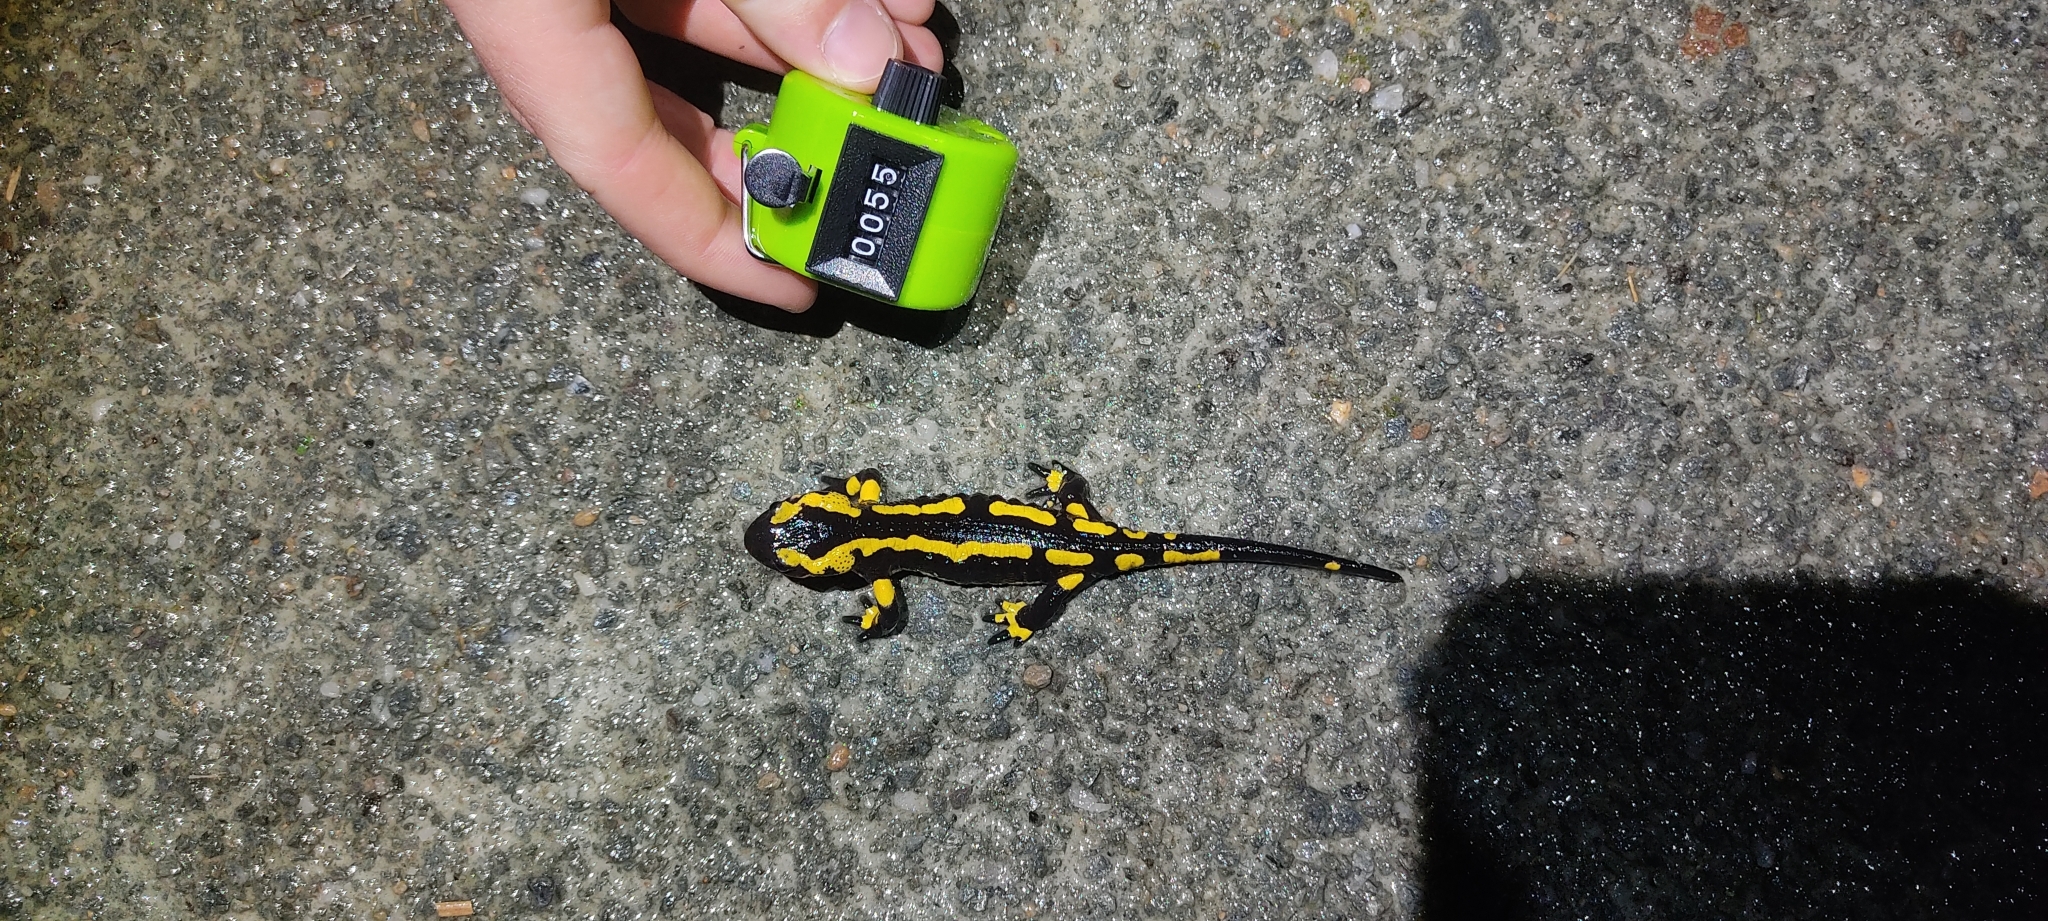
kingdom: Animalia
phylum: Chordata
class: Amphibia
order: Caudata
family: Salamandridae
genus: Salamandra
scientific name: Salamandra salamandra
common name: Fire salamander
